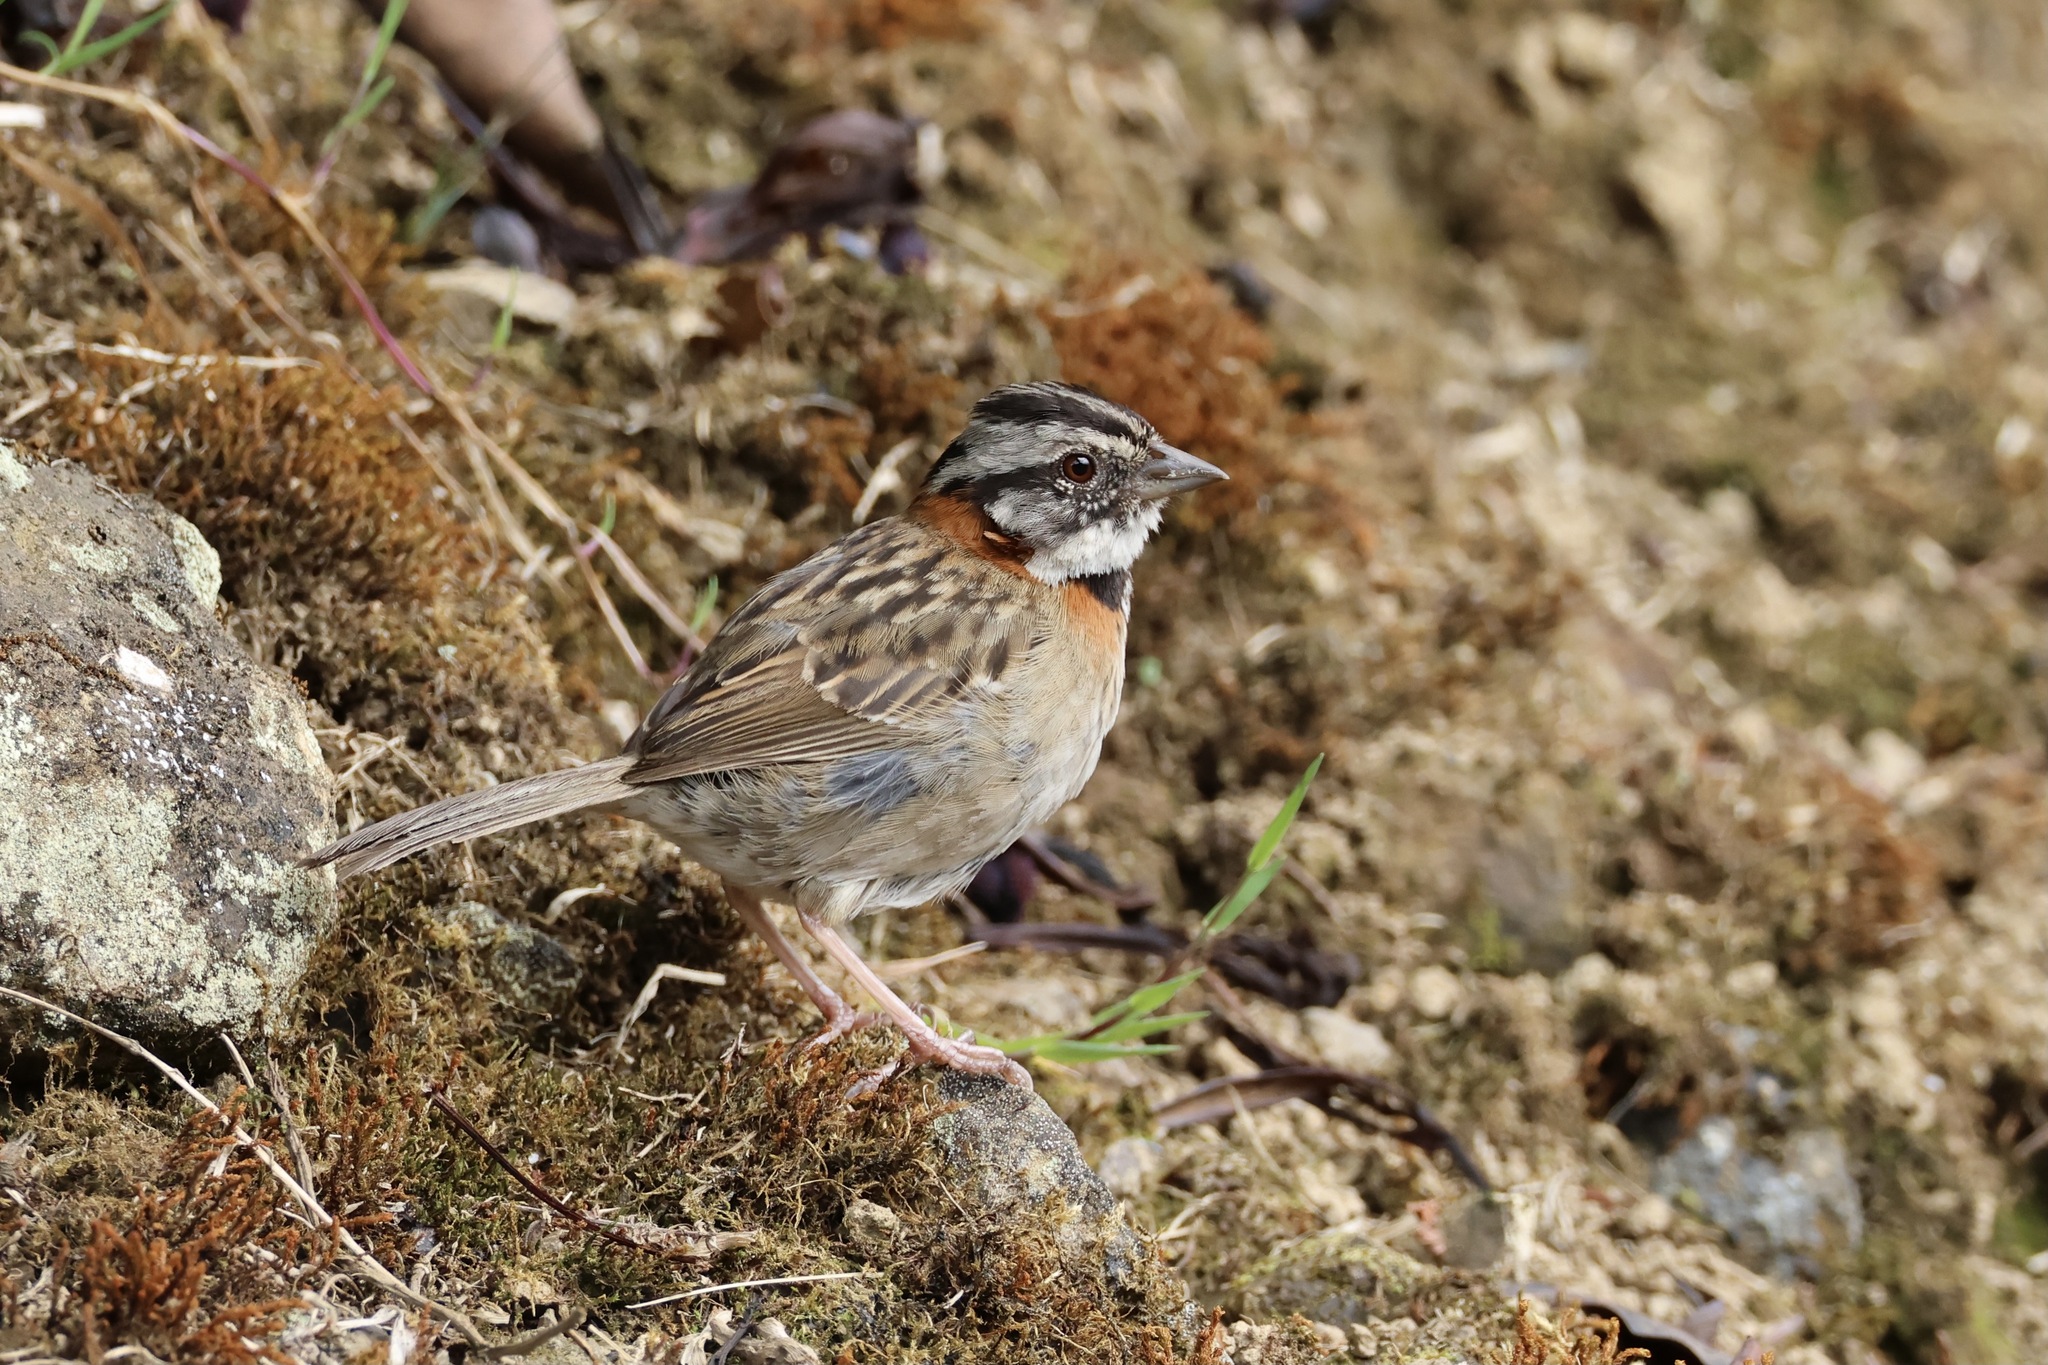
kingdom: Animalia
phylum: Chordata
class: Aves
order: Passeriformes
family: Passerellidae
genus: Zonotrichia
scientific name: Zonotrichia capensis
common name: Rufous-collared sparrow
